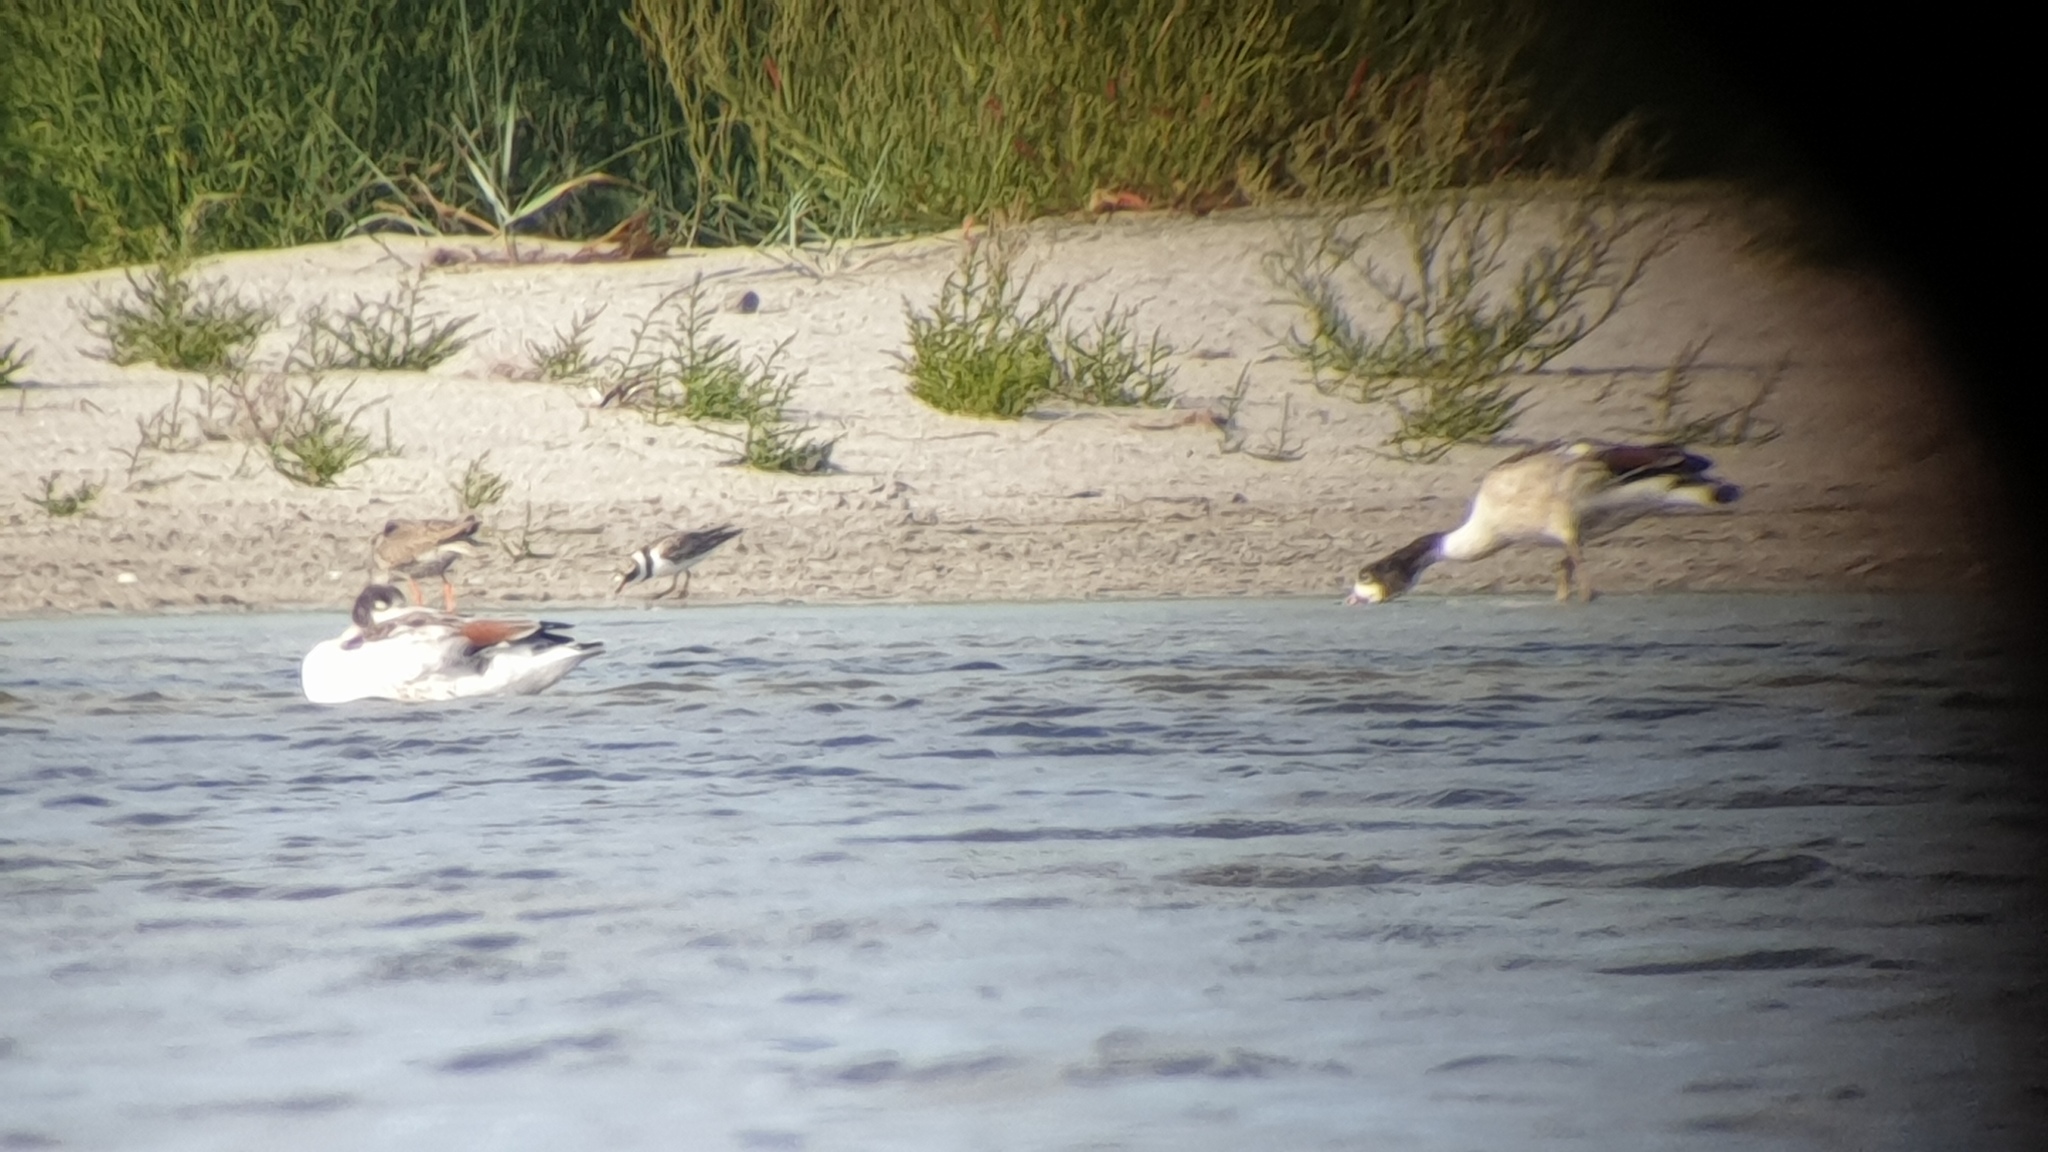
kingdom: Animalia
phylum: Chordata
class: Aves
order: Anseriformes
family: Anatidae
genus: Tadorna
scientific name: Tadorna tadorna
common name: Common shelduck
